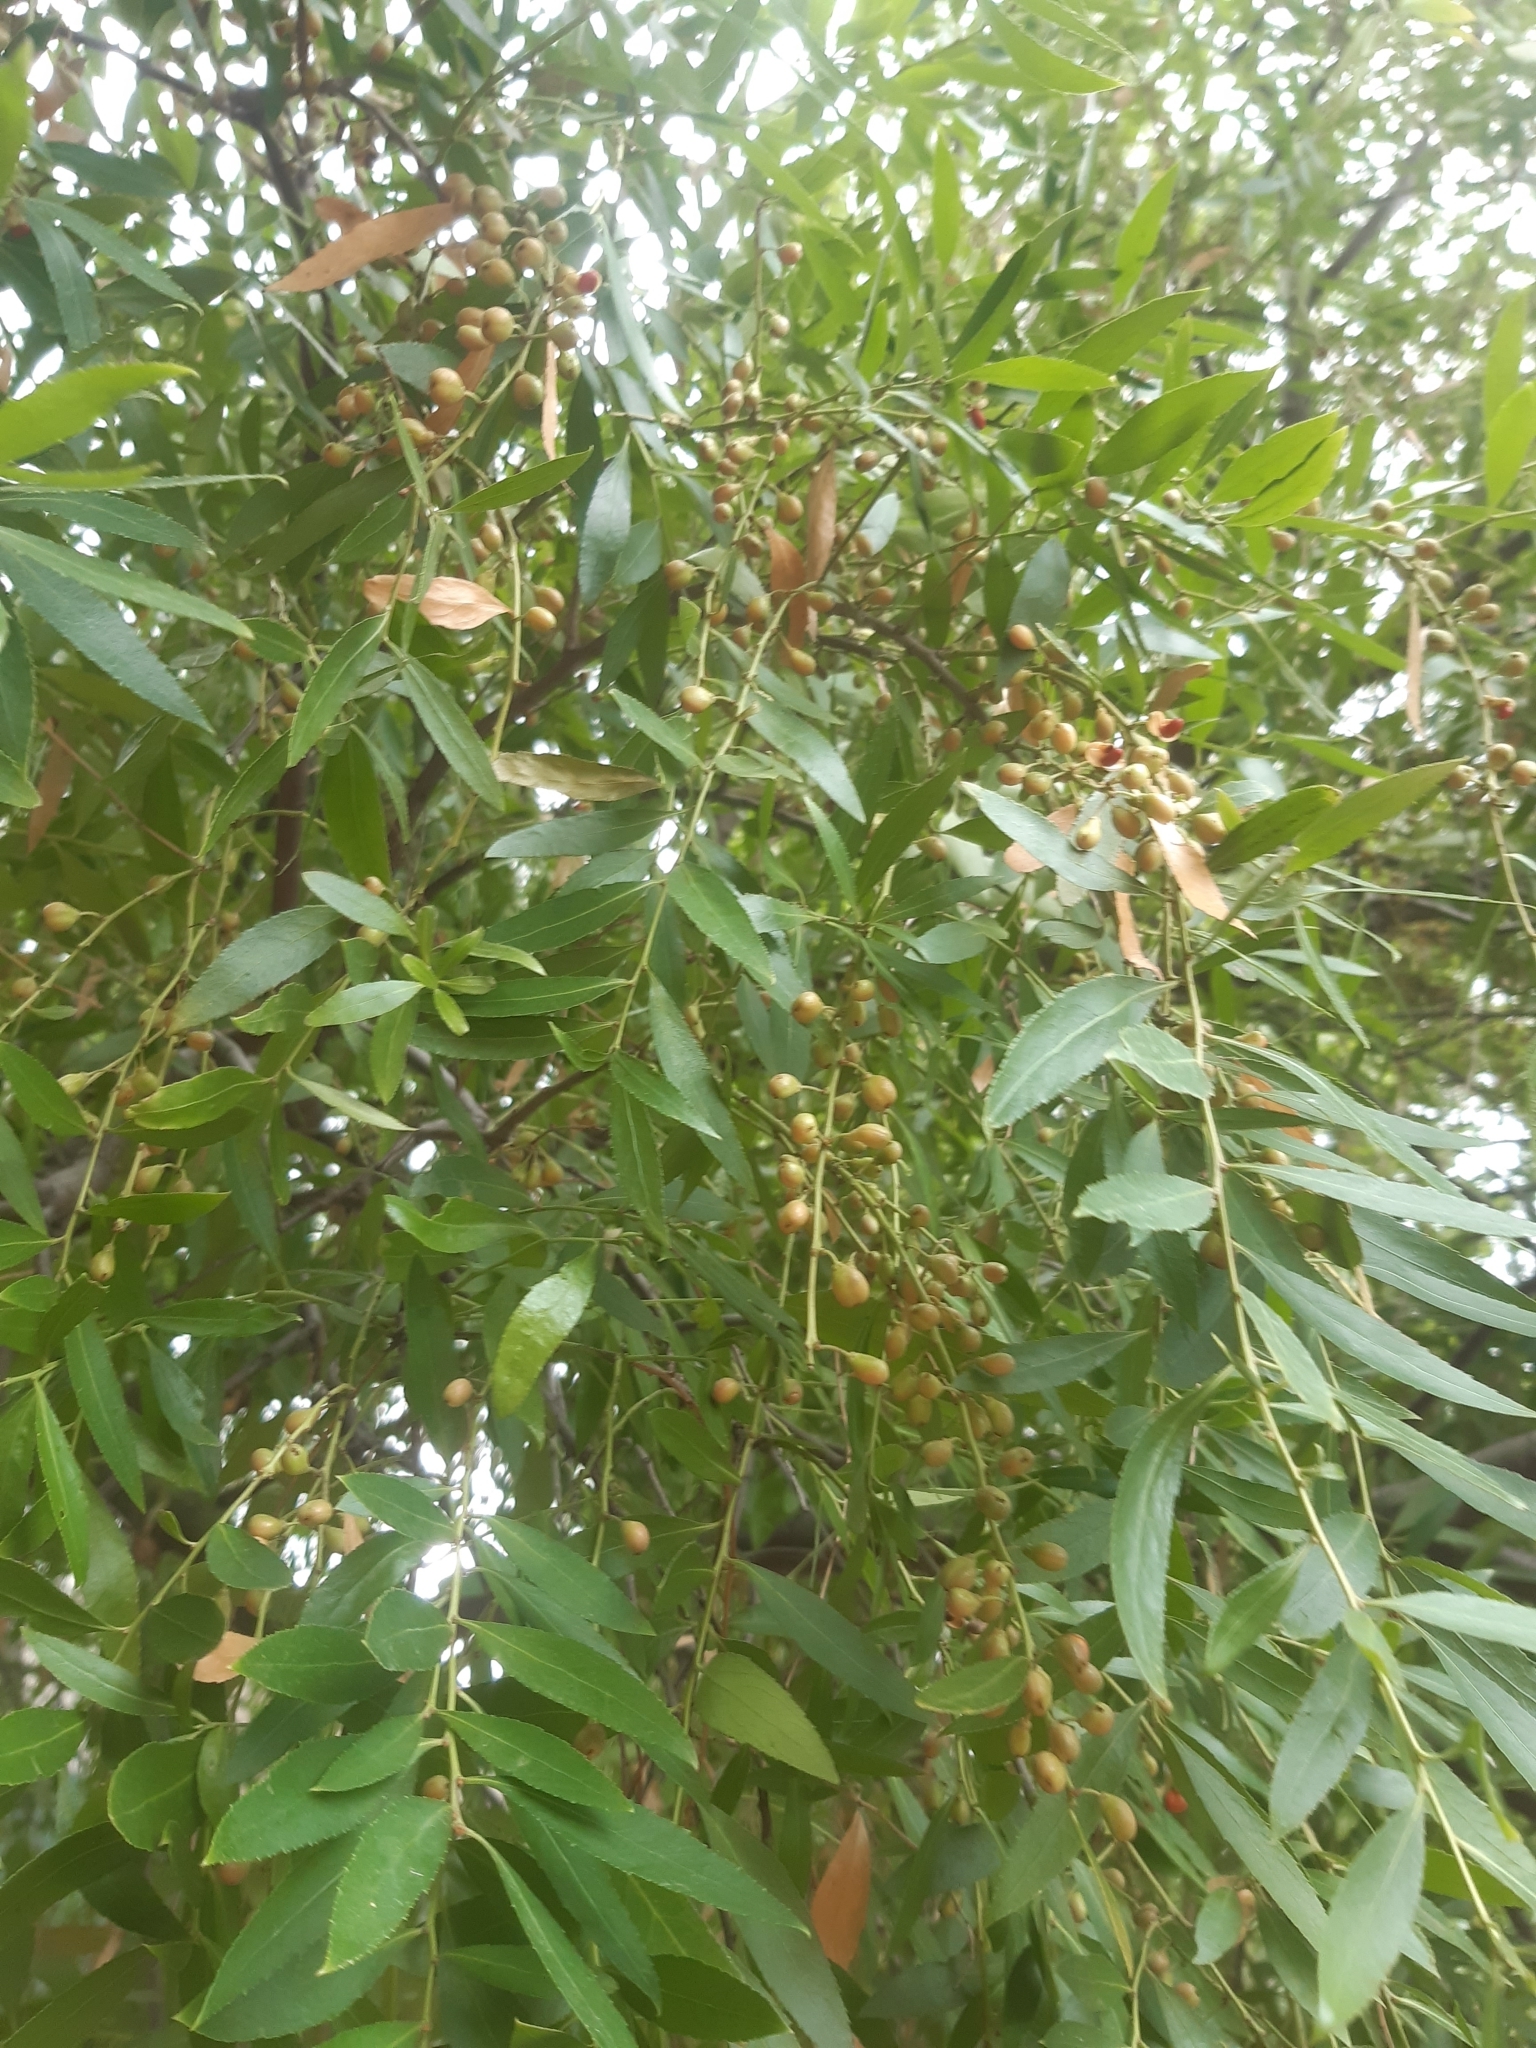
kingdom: Plantae
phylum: Tracheophyta
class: Magnoliopsida
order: Celastrales
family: Celastraceae
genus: Maytenus
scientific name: Maytenus boaria
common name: Mayten
